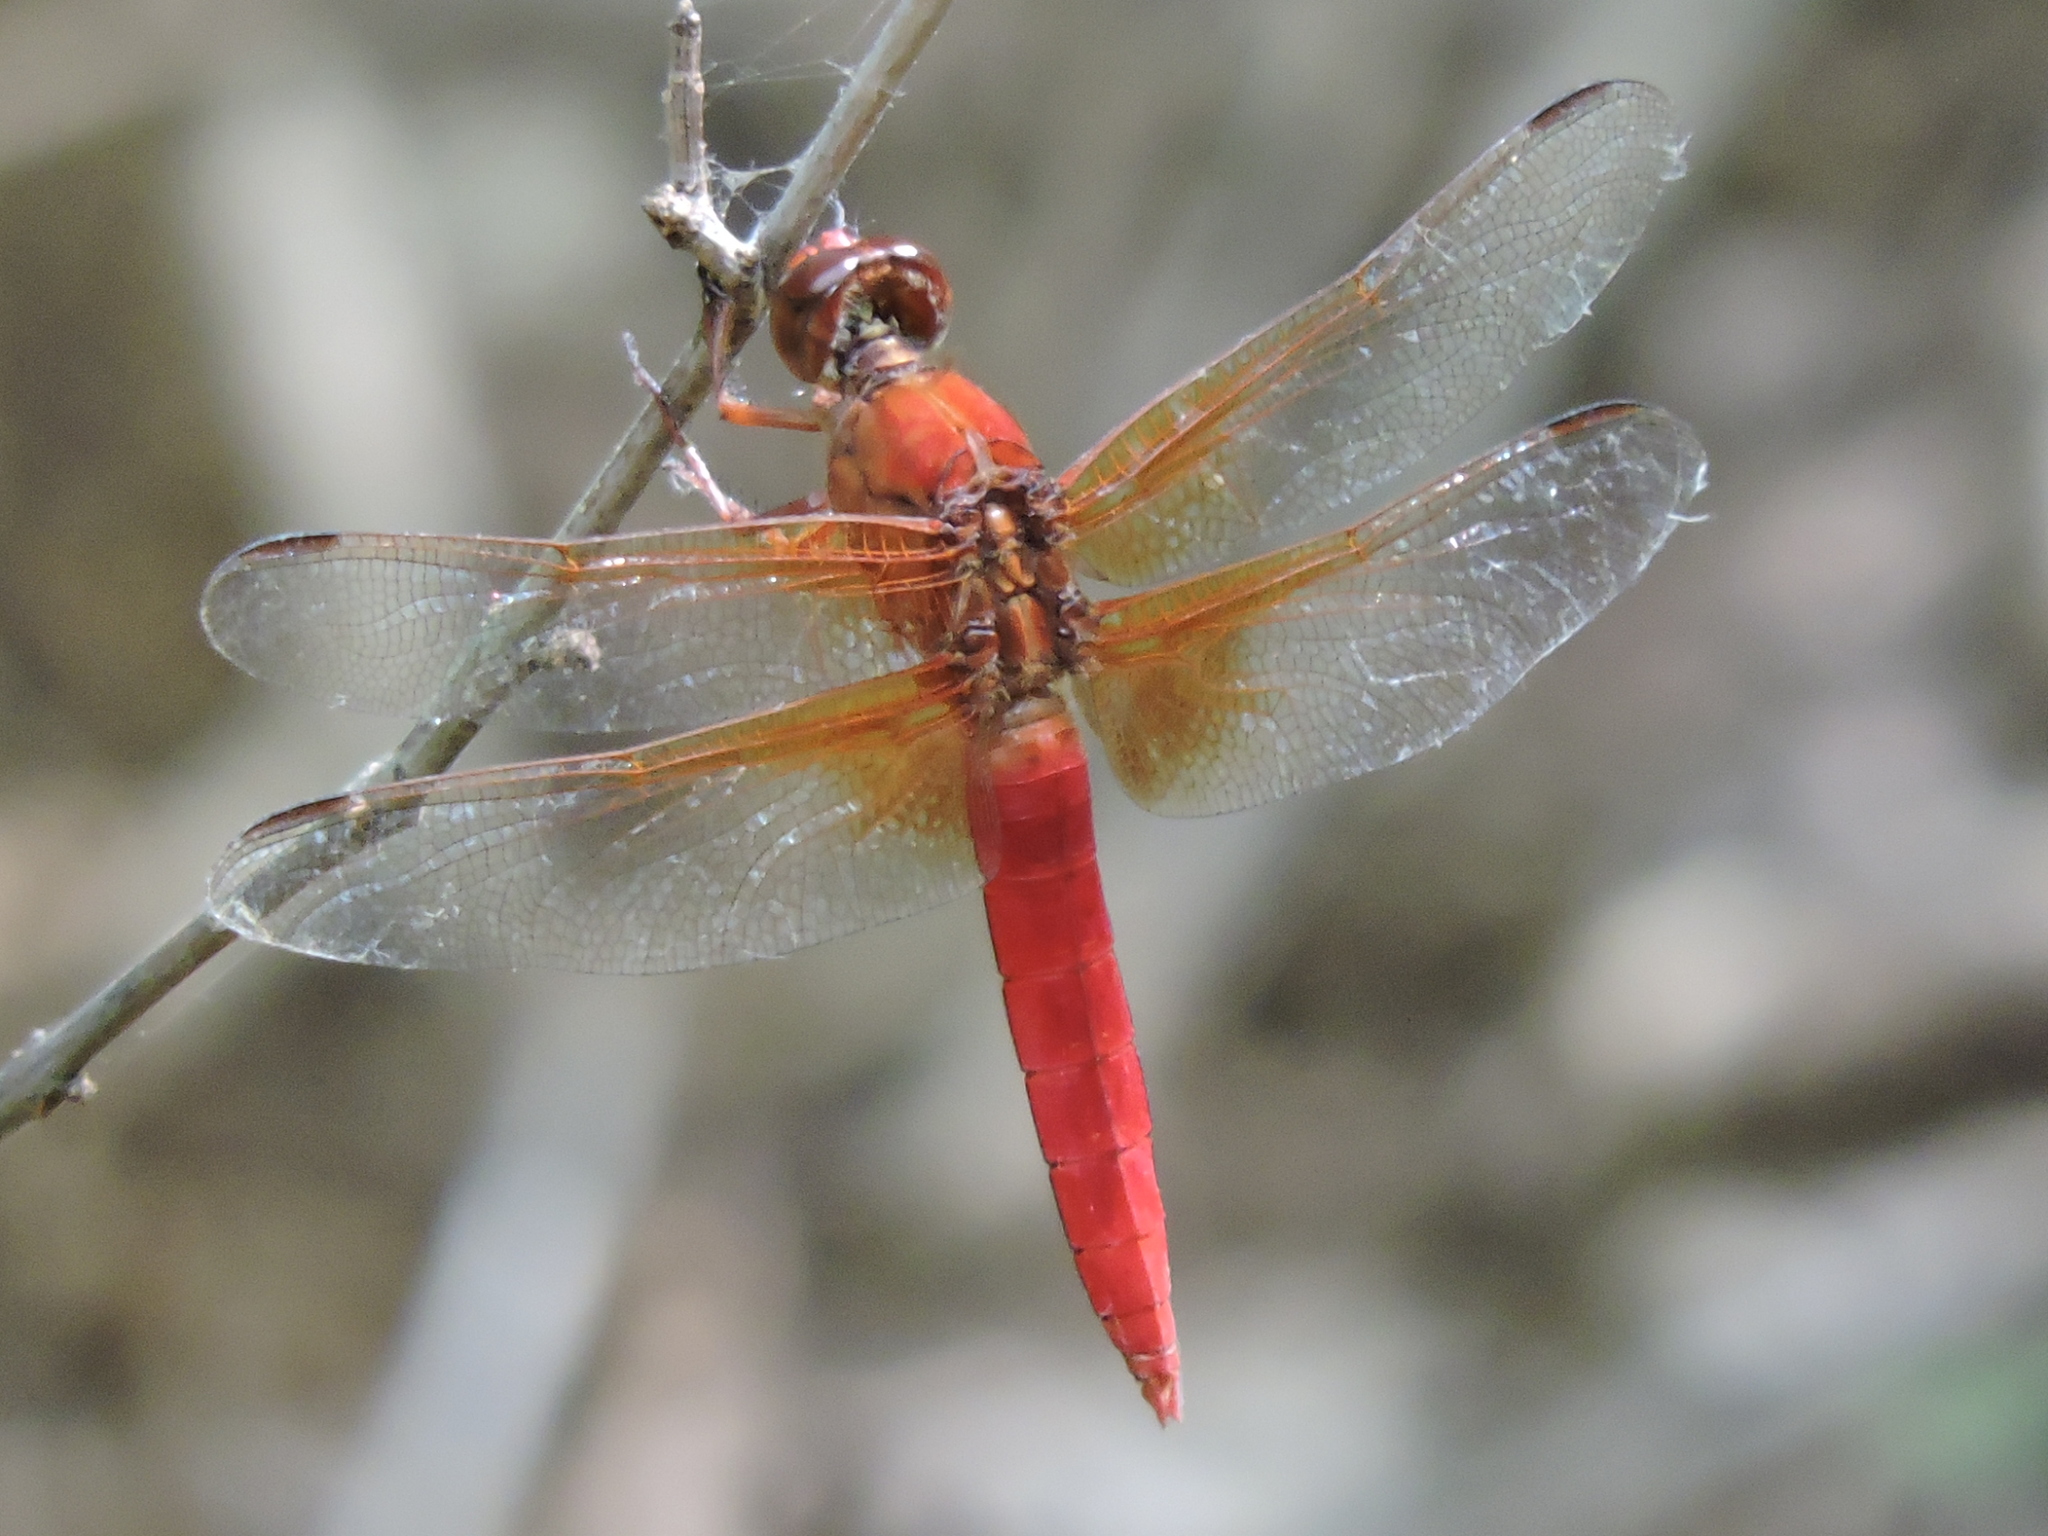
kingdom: Animalia
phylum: Arthropoda
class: Insecta
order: Odonata
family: Libellulidae
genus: Libellula
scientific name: Libellula croceipennis
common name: Neon skimmer
